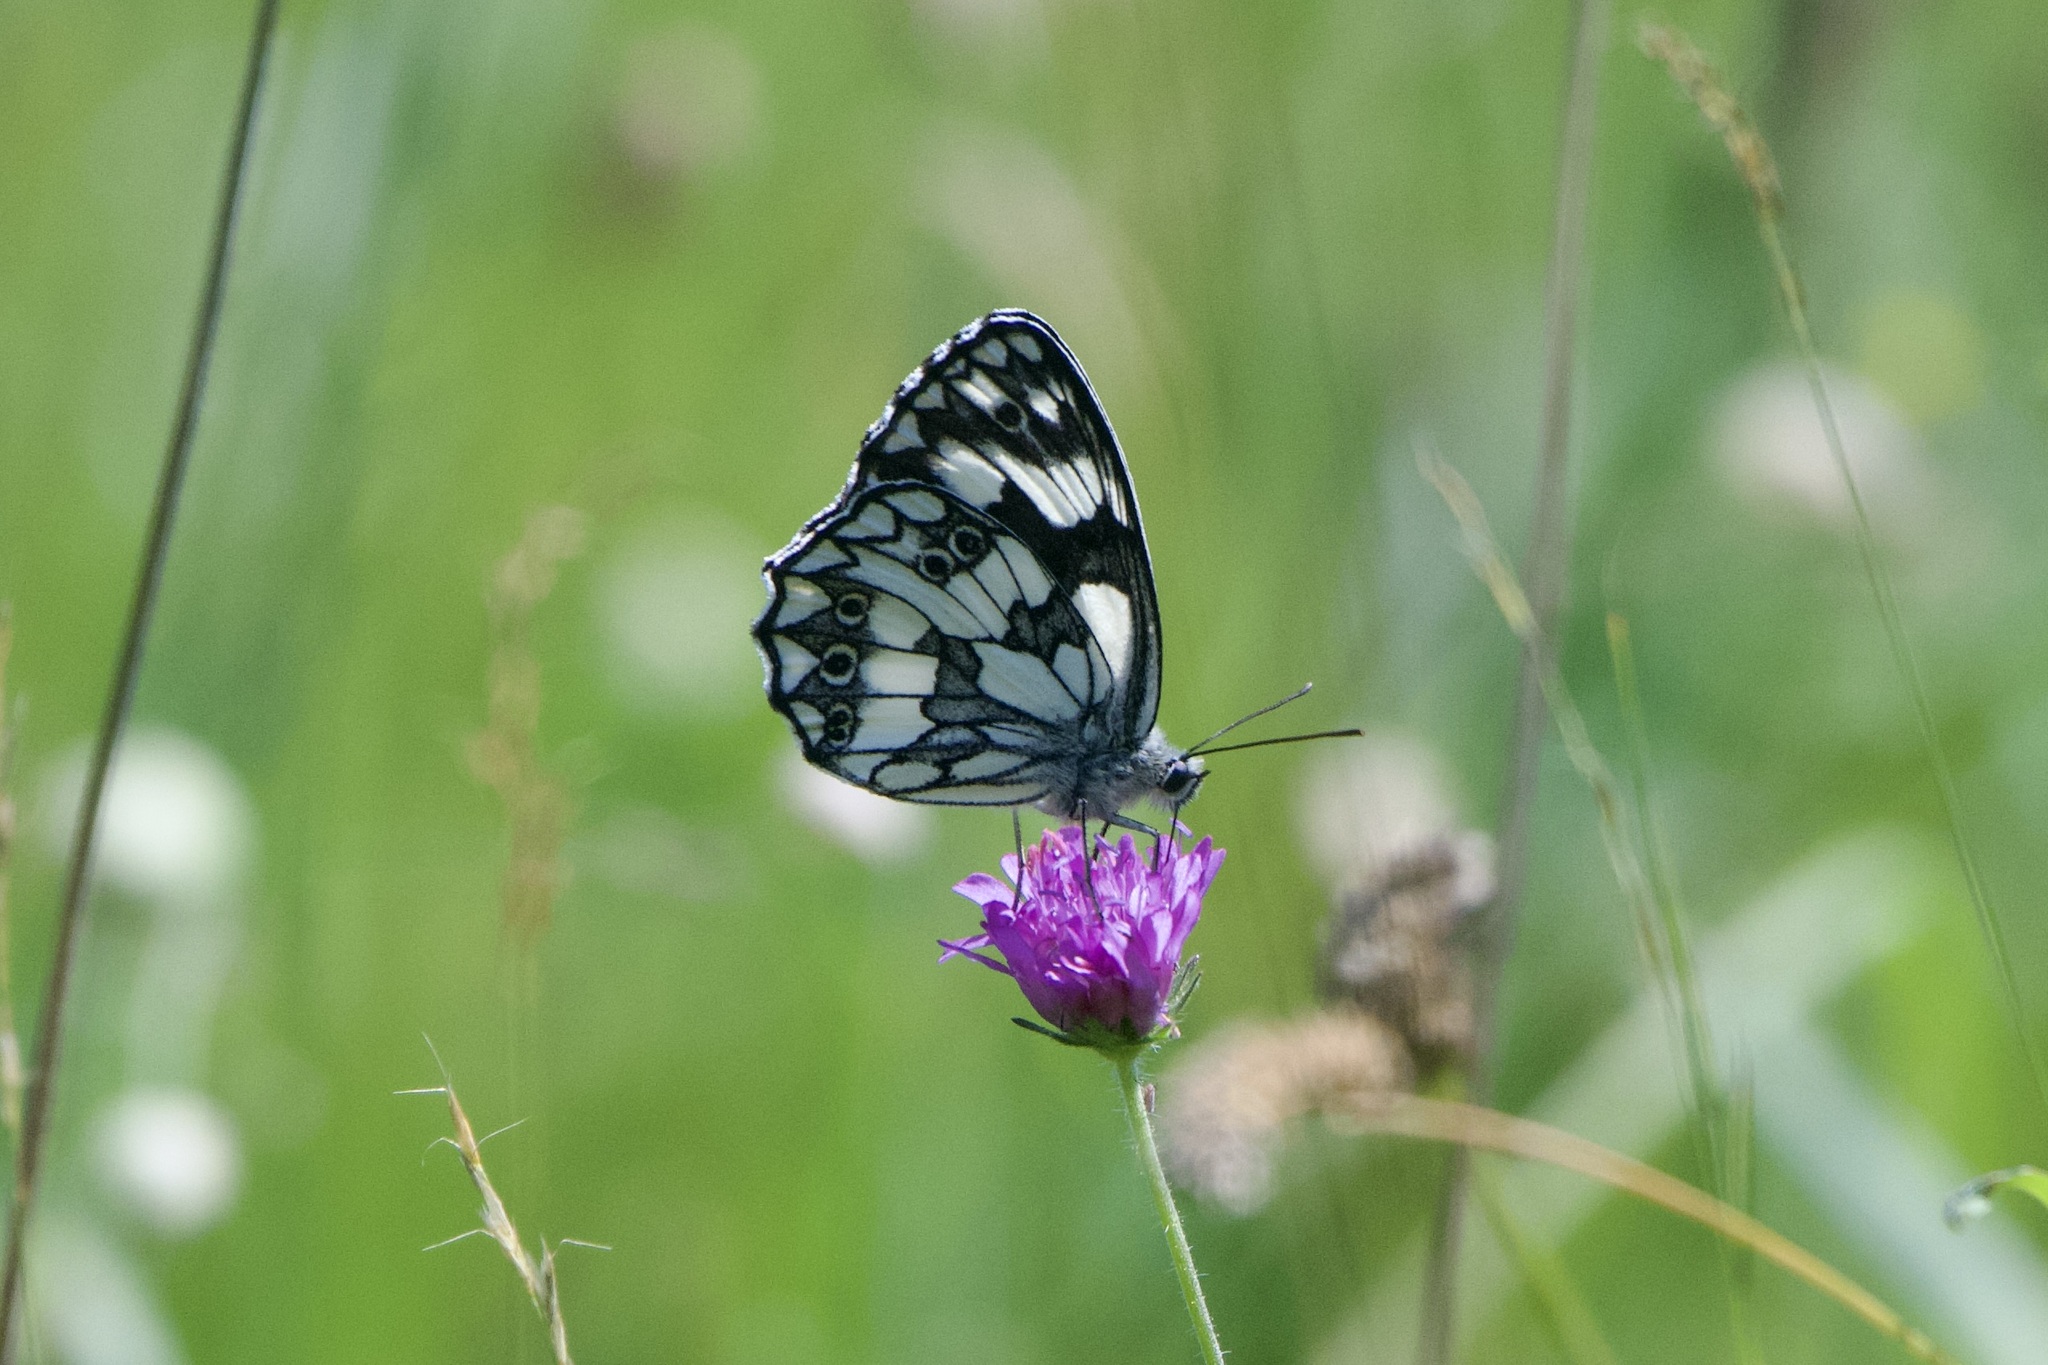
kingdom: Animalia
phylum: Arthropoda
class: Insecta
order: Lepidoptera
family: Nymphalidae
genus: Melanargia
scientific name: Melanargia galathea
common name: Marbled white
